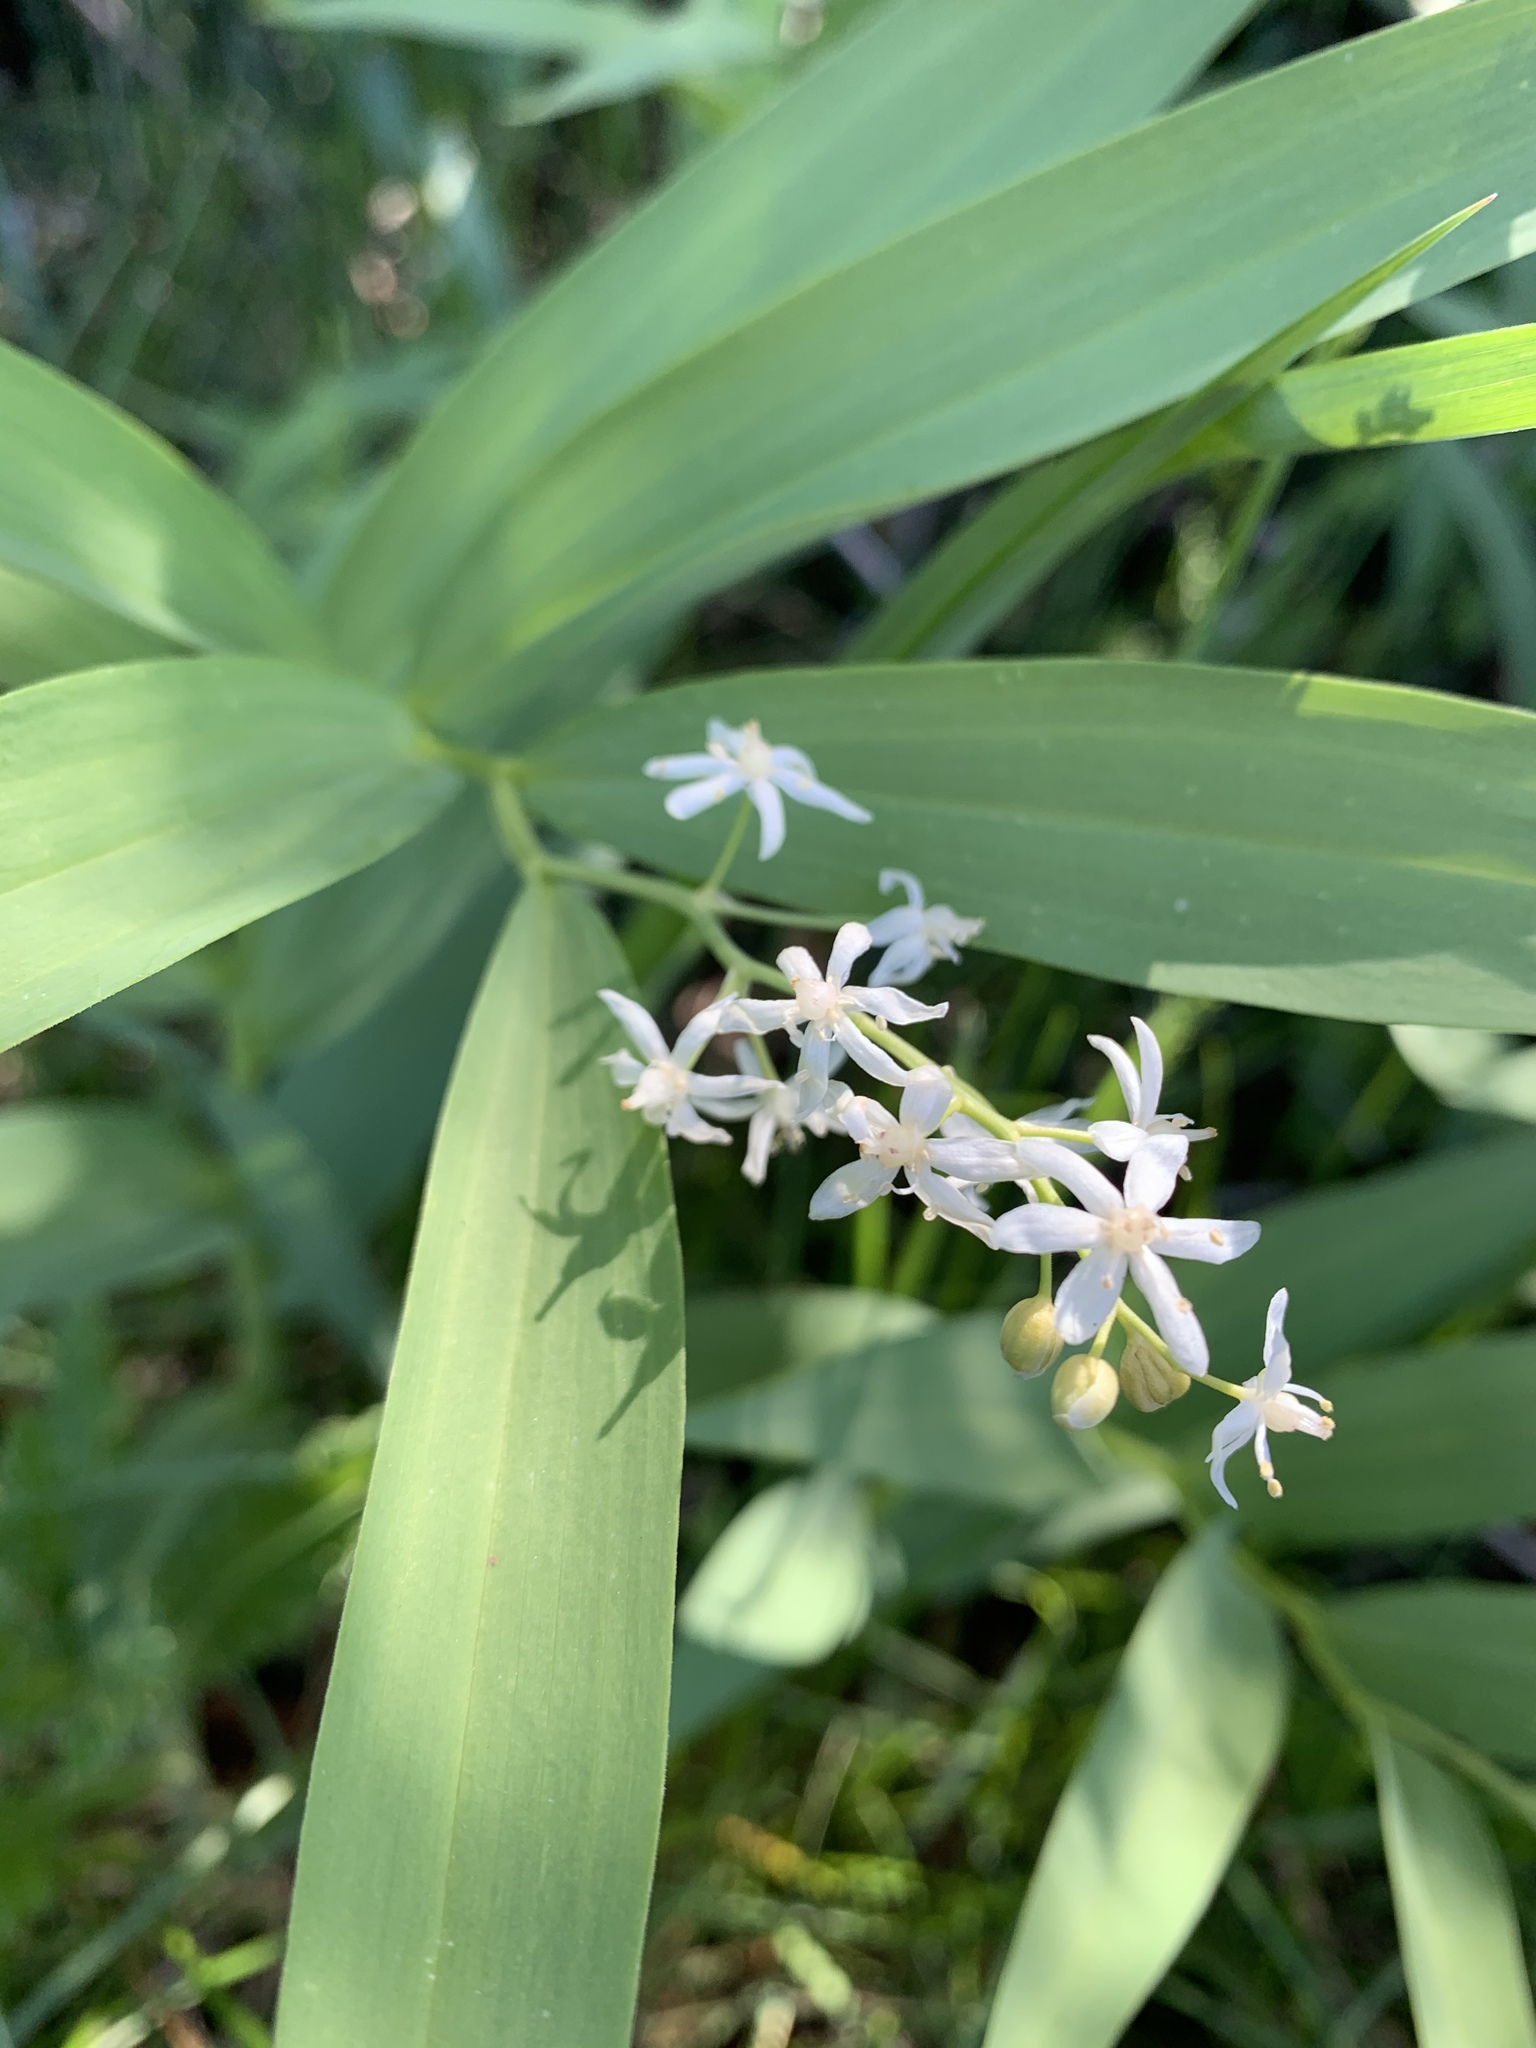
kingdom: Plantae
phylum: Tracheophyta
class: Liliopsida
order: Asparagales
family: Asparagaceae
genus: Maianthemum
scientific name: Maianthemum stellatum
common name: Little false solomon's seal
